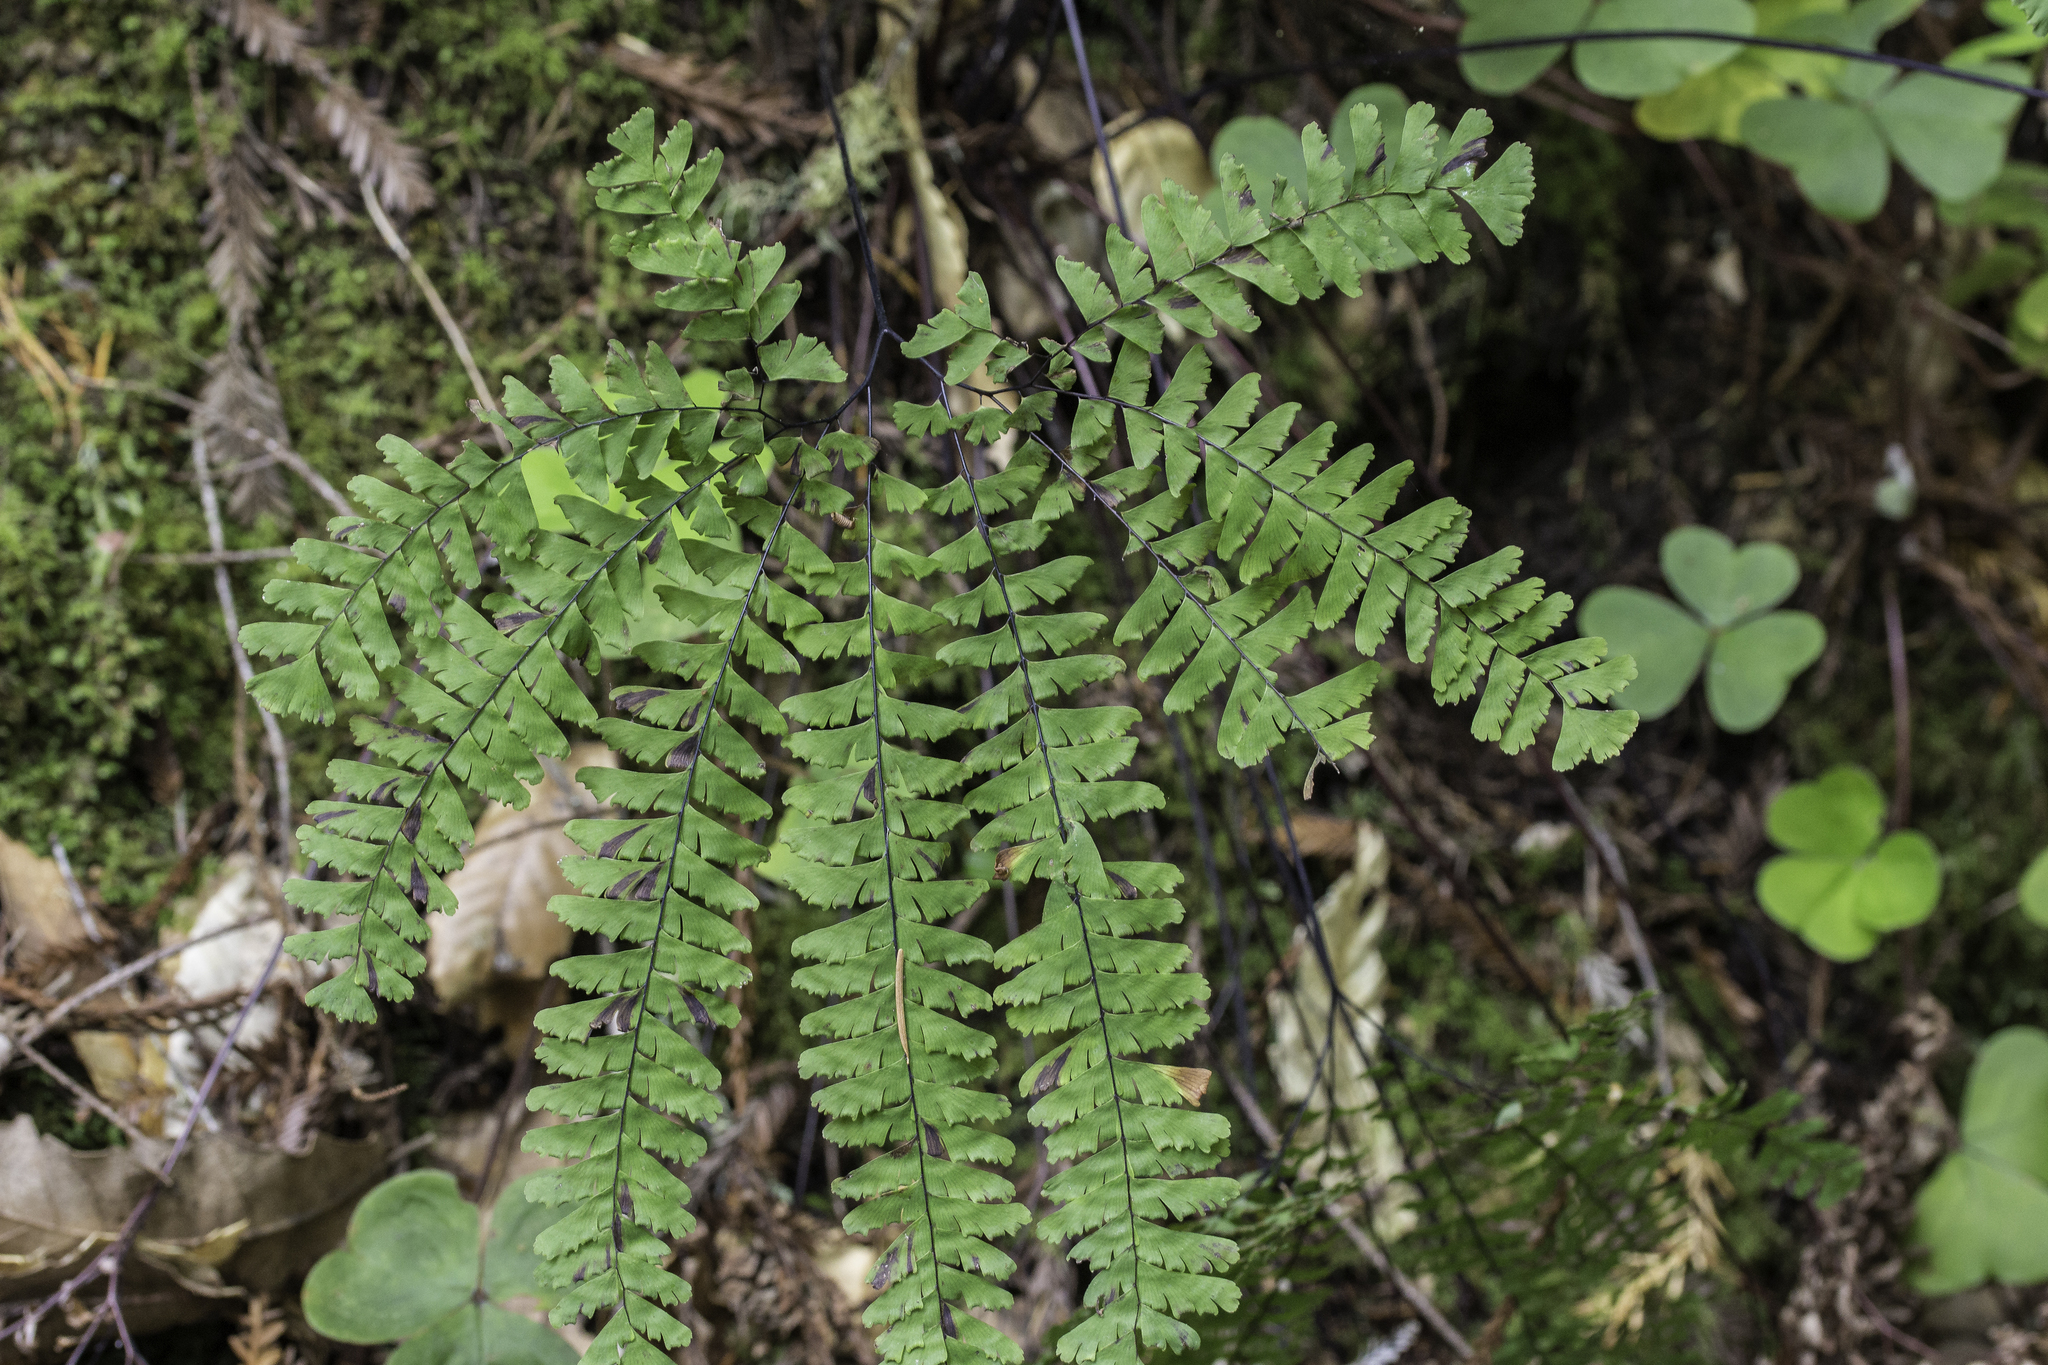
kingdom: Plantae
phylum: Tracheophyta
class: Polypodiopsida
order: Polypodiales
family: Pteridaceae
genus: Adiantum
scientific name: Adiantum aleuticum
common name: Aleutian maidenhair fern
